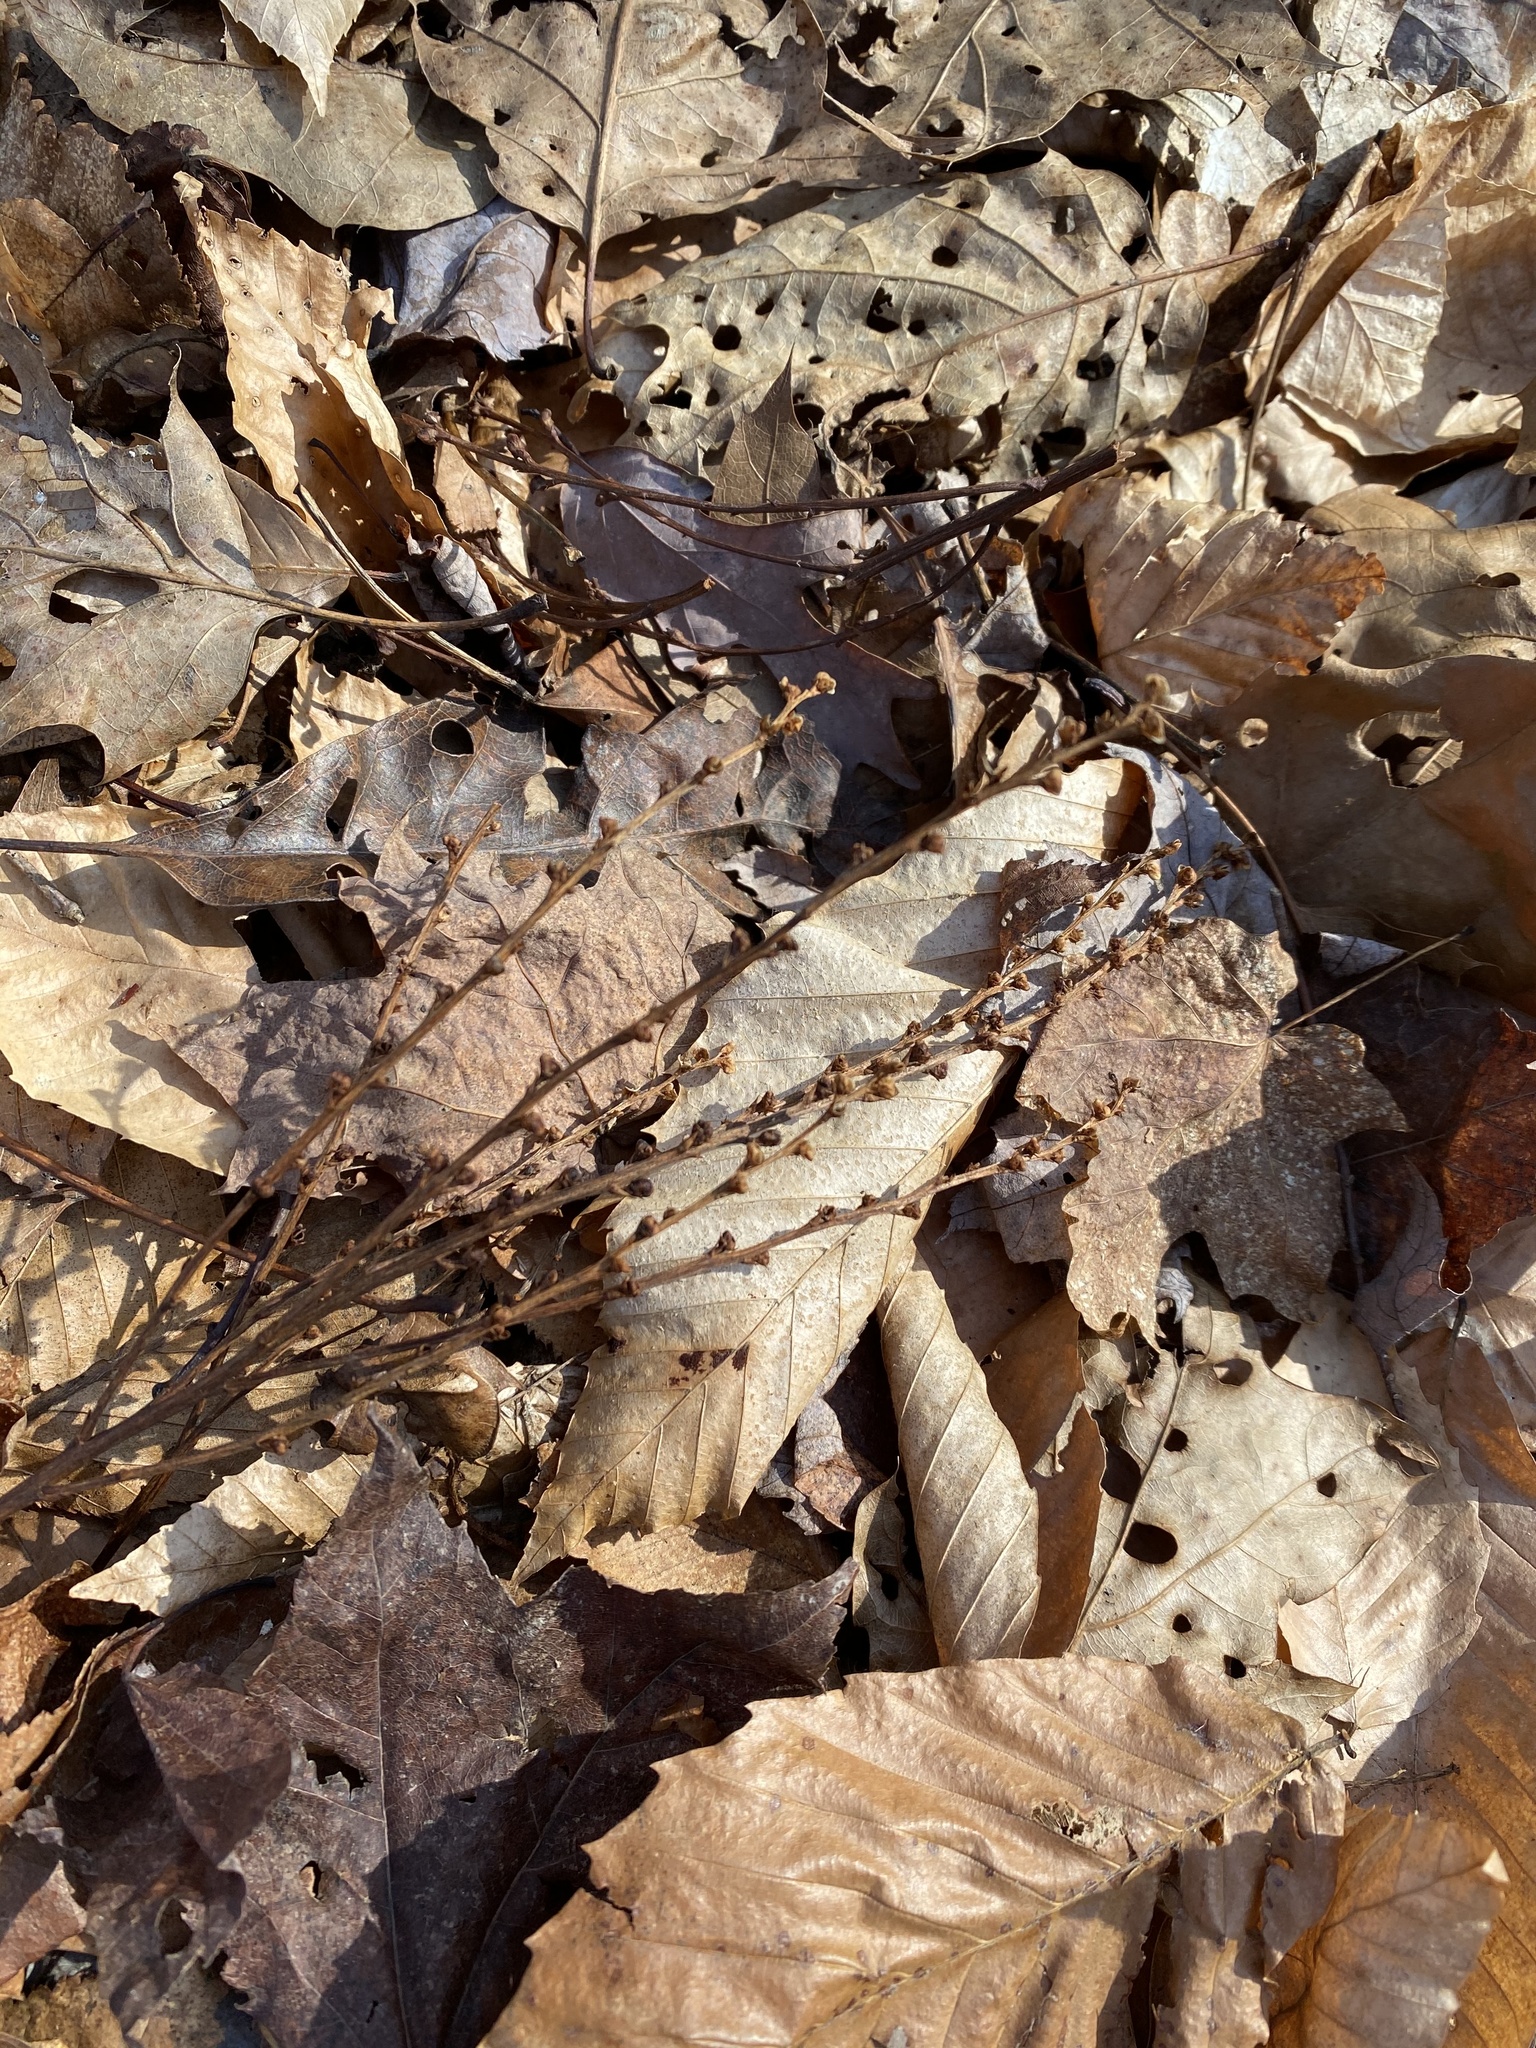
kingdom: Plantae
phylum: Tracheophyta
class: Magnoliopsida
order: Lamiales
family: Orobanchaceae
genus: Epifagus
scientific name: Epifagus virginiana
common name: Beechdrops
